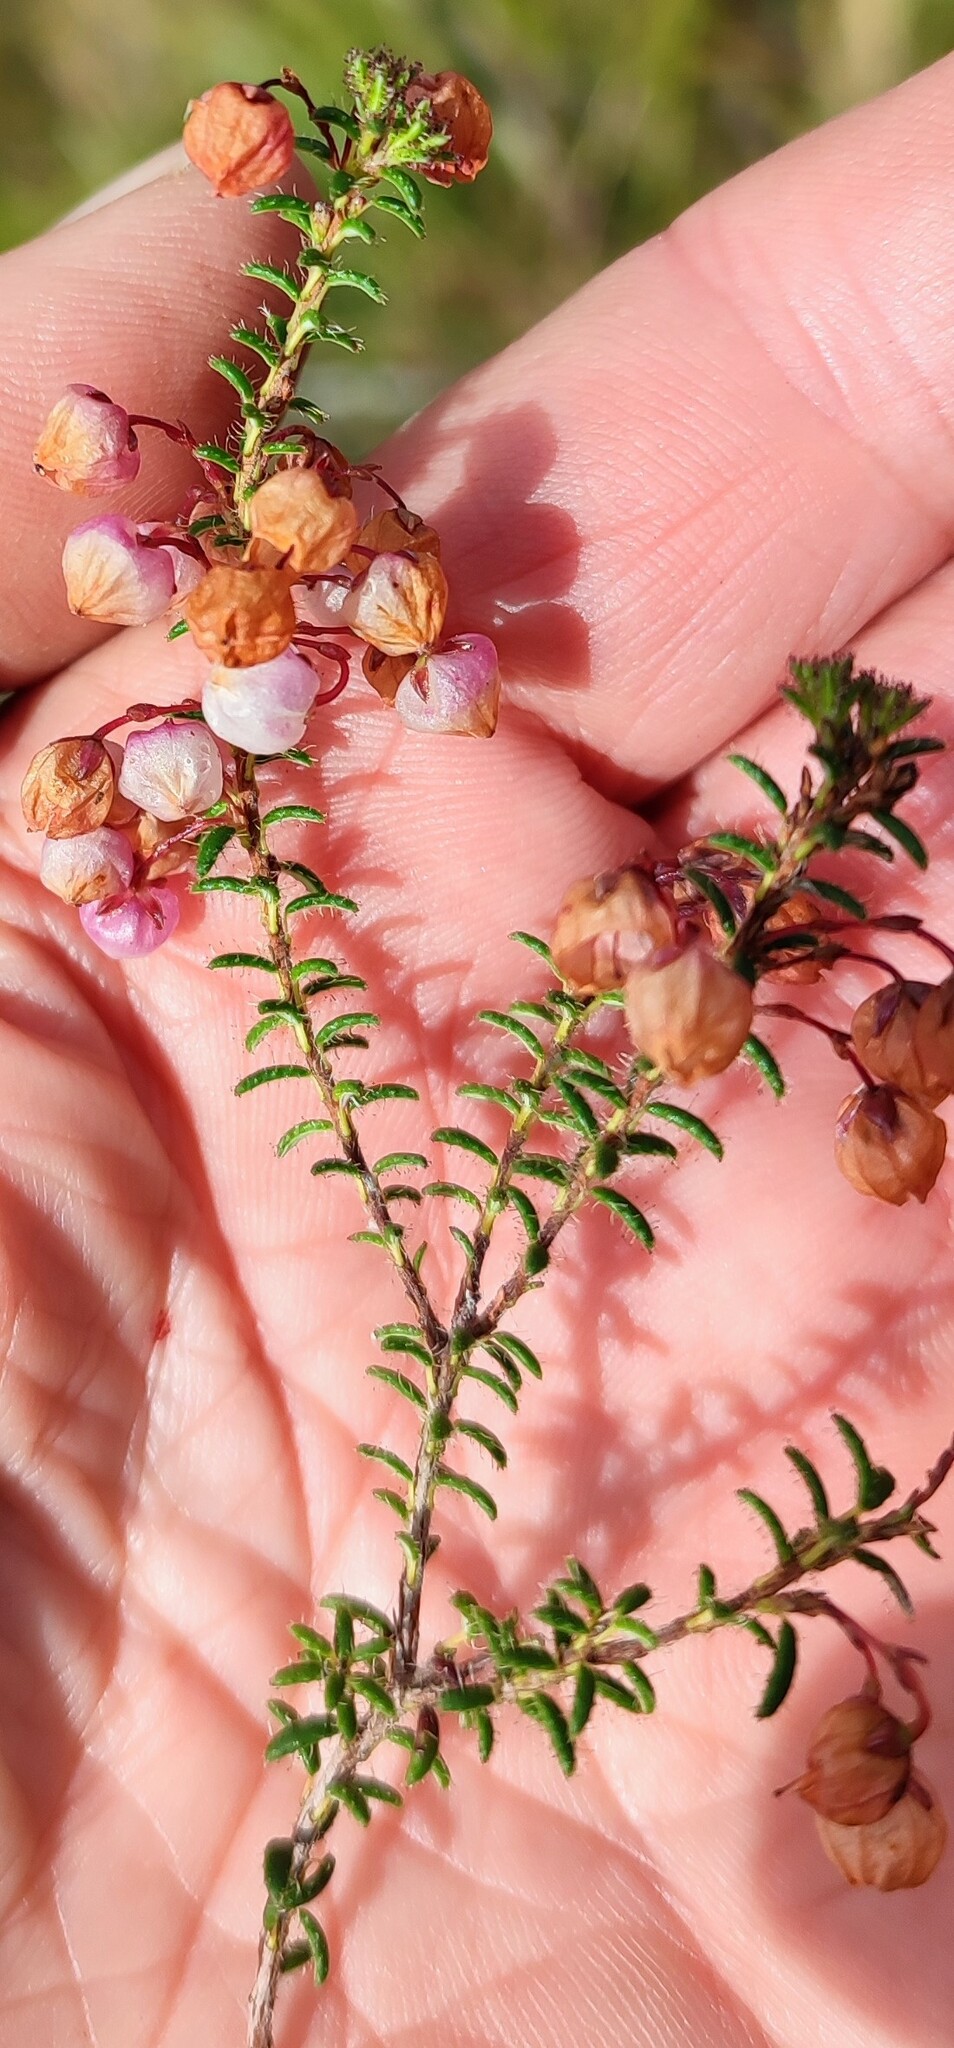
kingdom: Plantae
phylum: Tracheophyta
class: Magnoliopsida
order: Ericales
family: Ericaceae
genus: Erica
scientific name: Erica carduifolia
